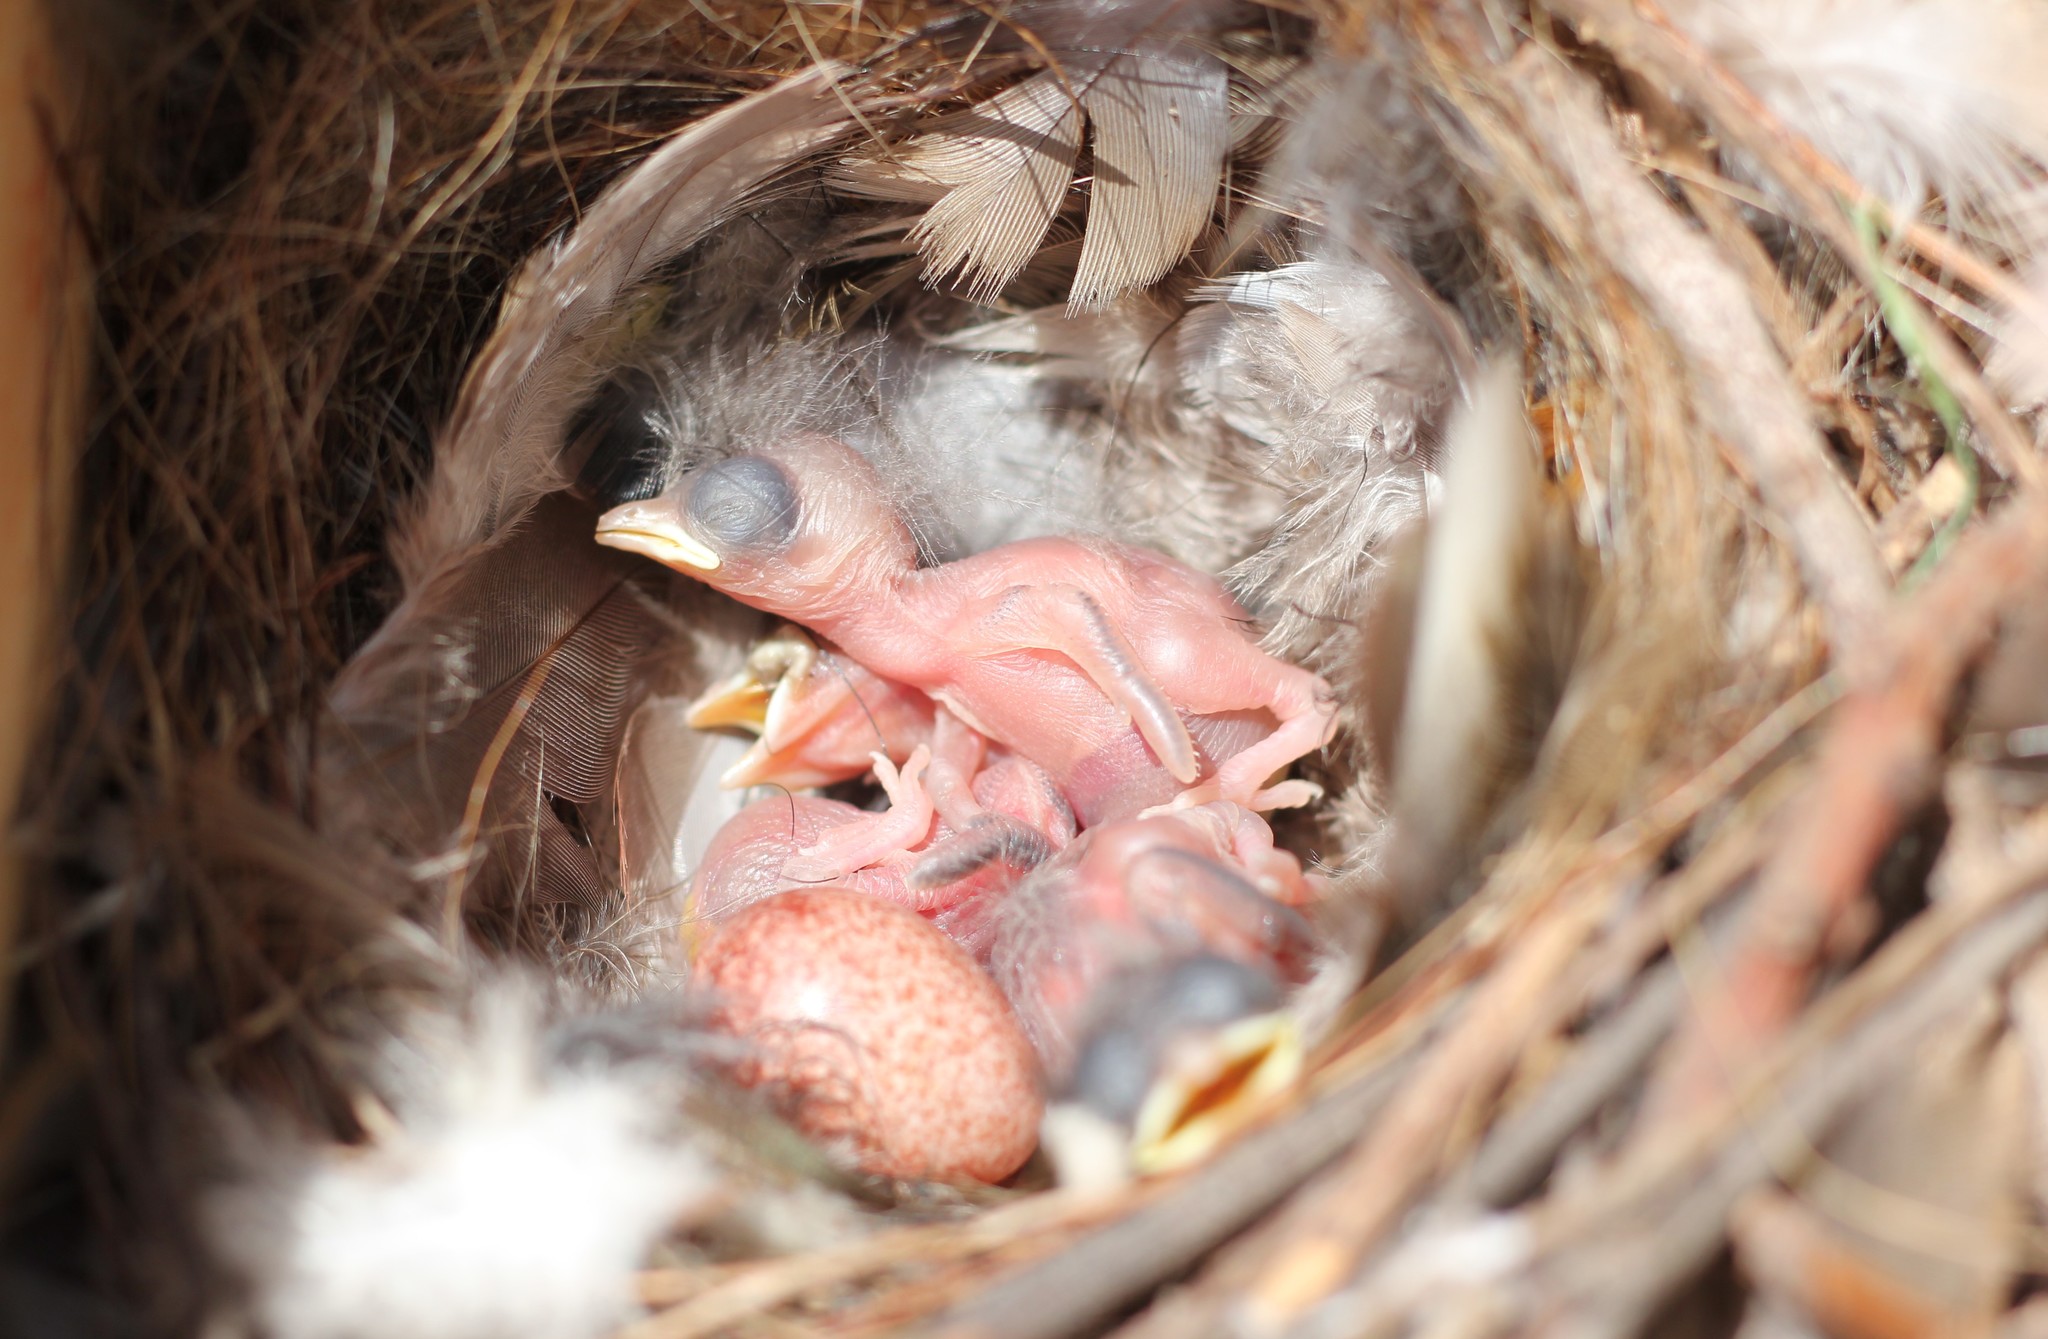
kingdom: Animalia
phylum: Chordata
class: Aves
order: Passeriformes
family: Troglodytidae
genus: Troglodytes
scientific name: Troglodytes aedon
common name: House wren
